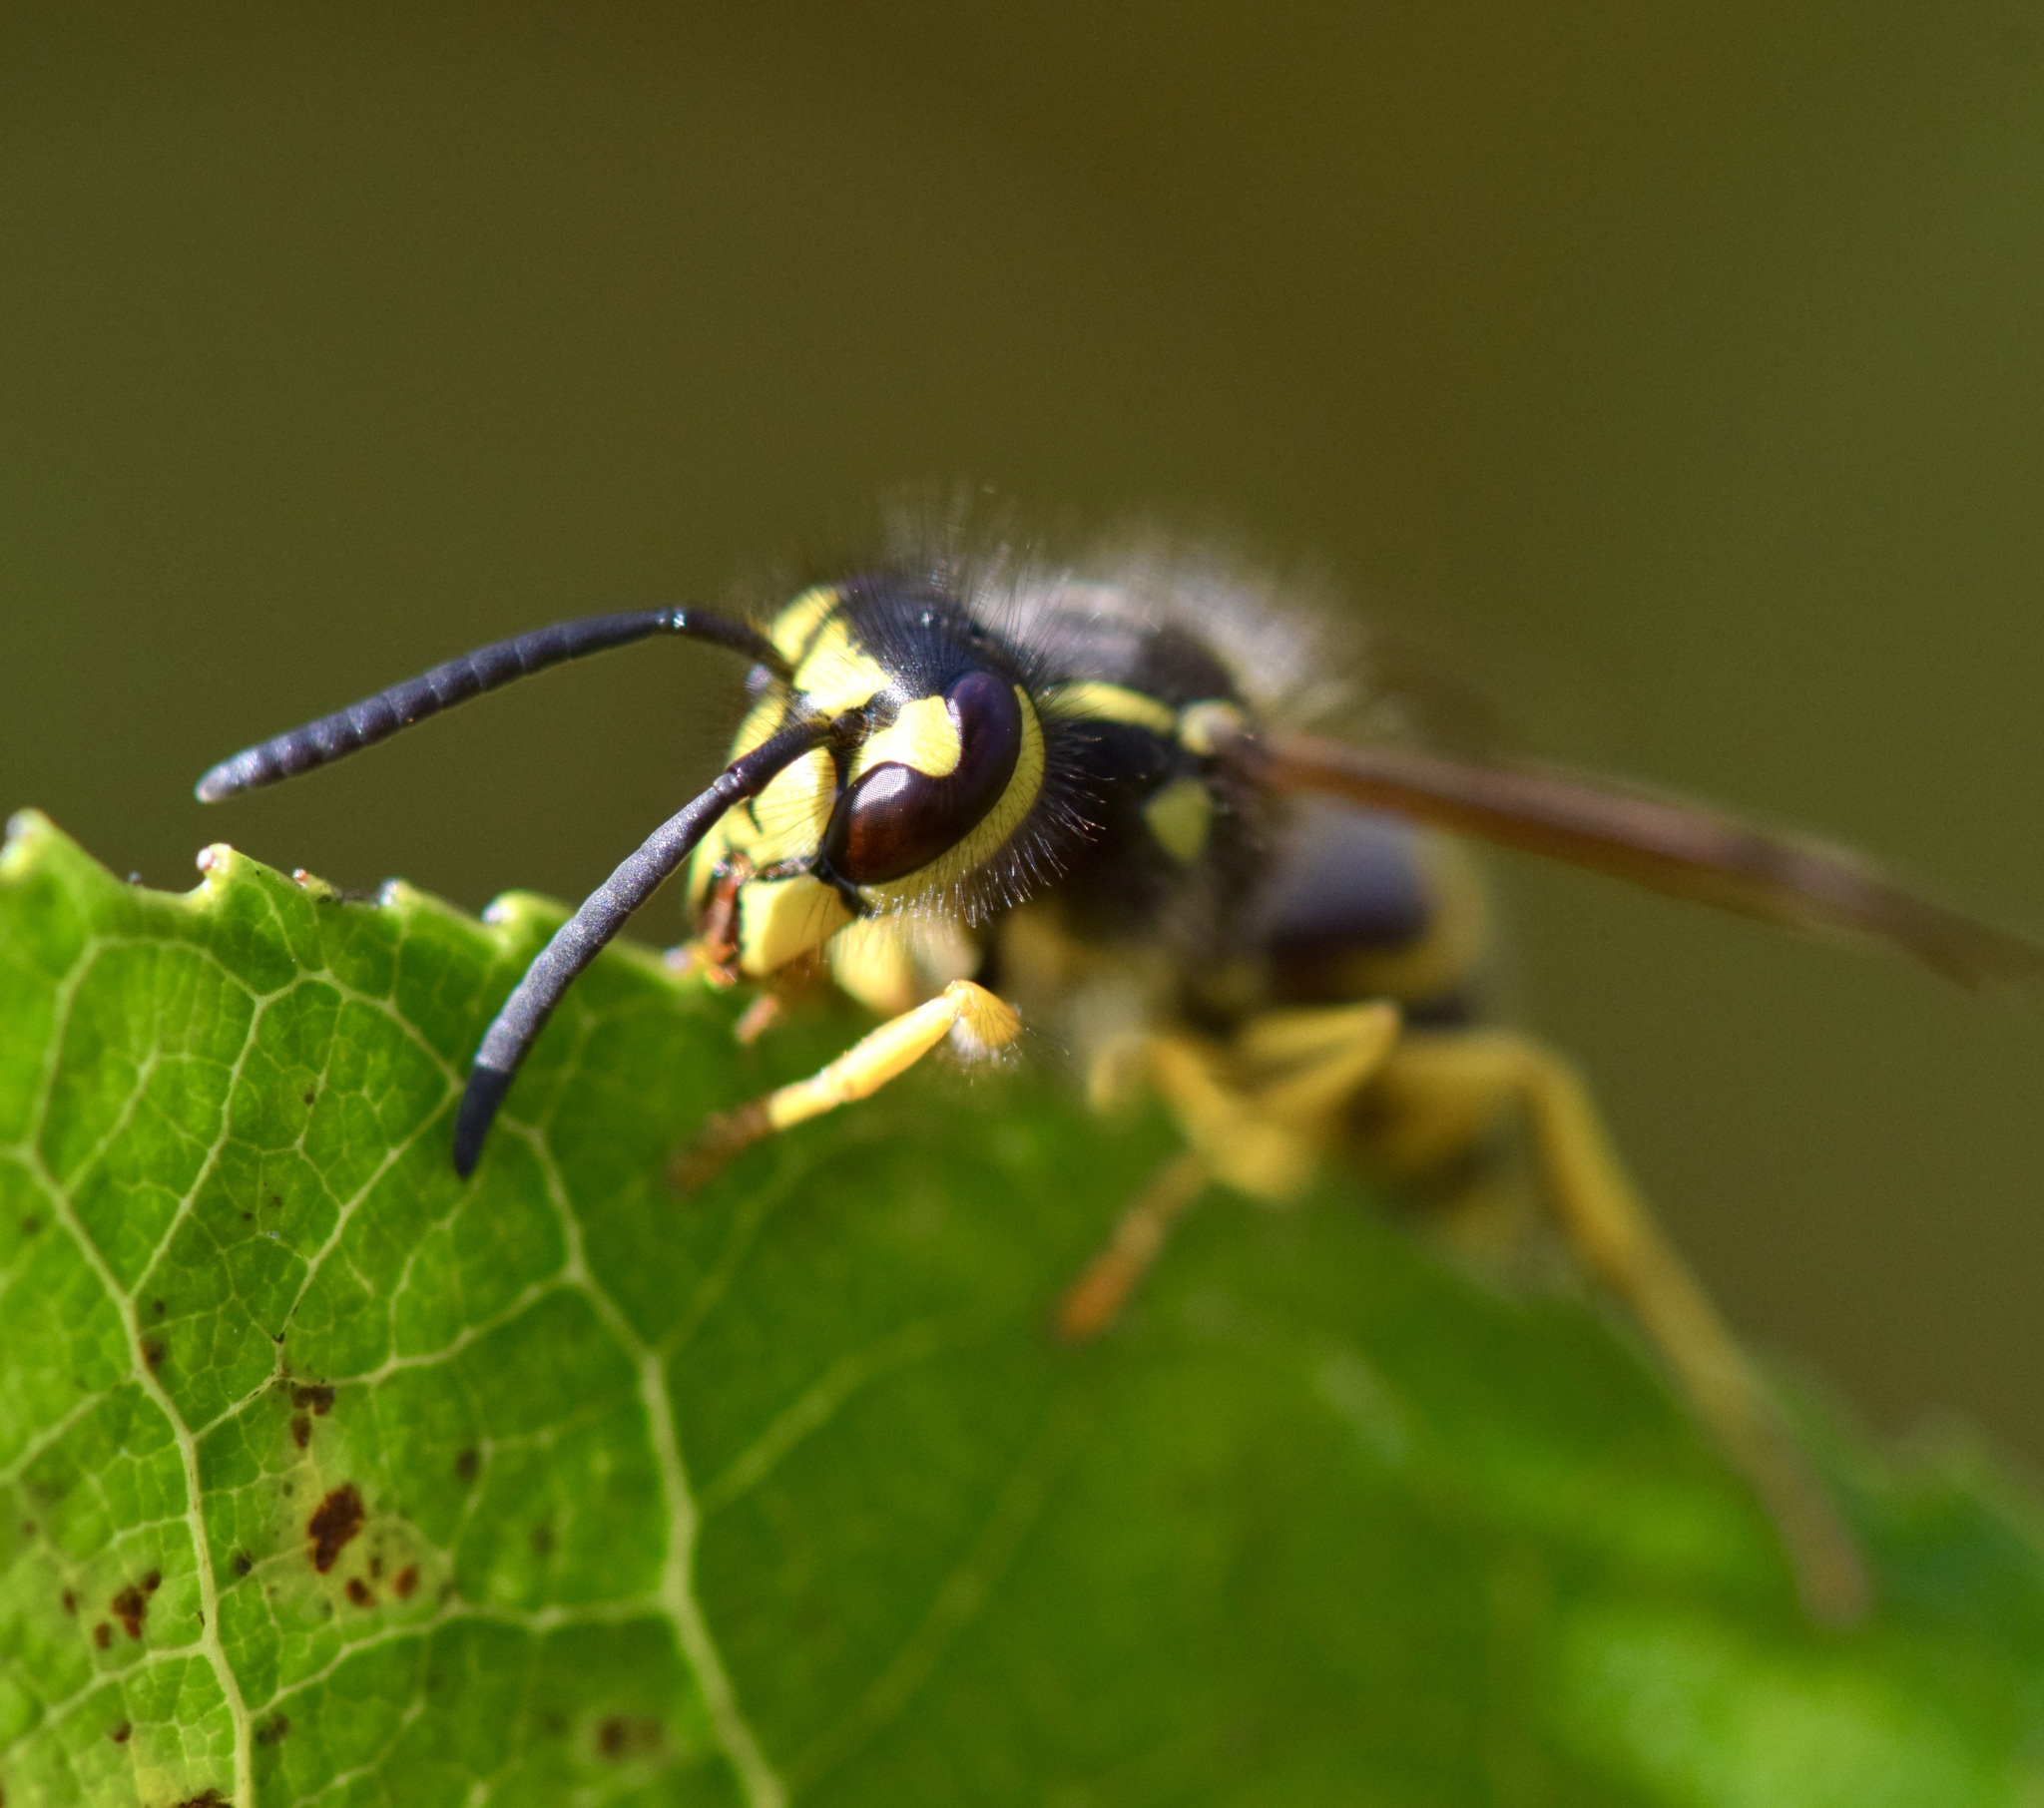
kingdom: Animalia
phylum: Arthropoda
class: Insecta
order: Hymenoptera
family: Vespidae
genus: Vespula
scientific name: Vespula maculifrons
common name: Eastern yellowjacket
